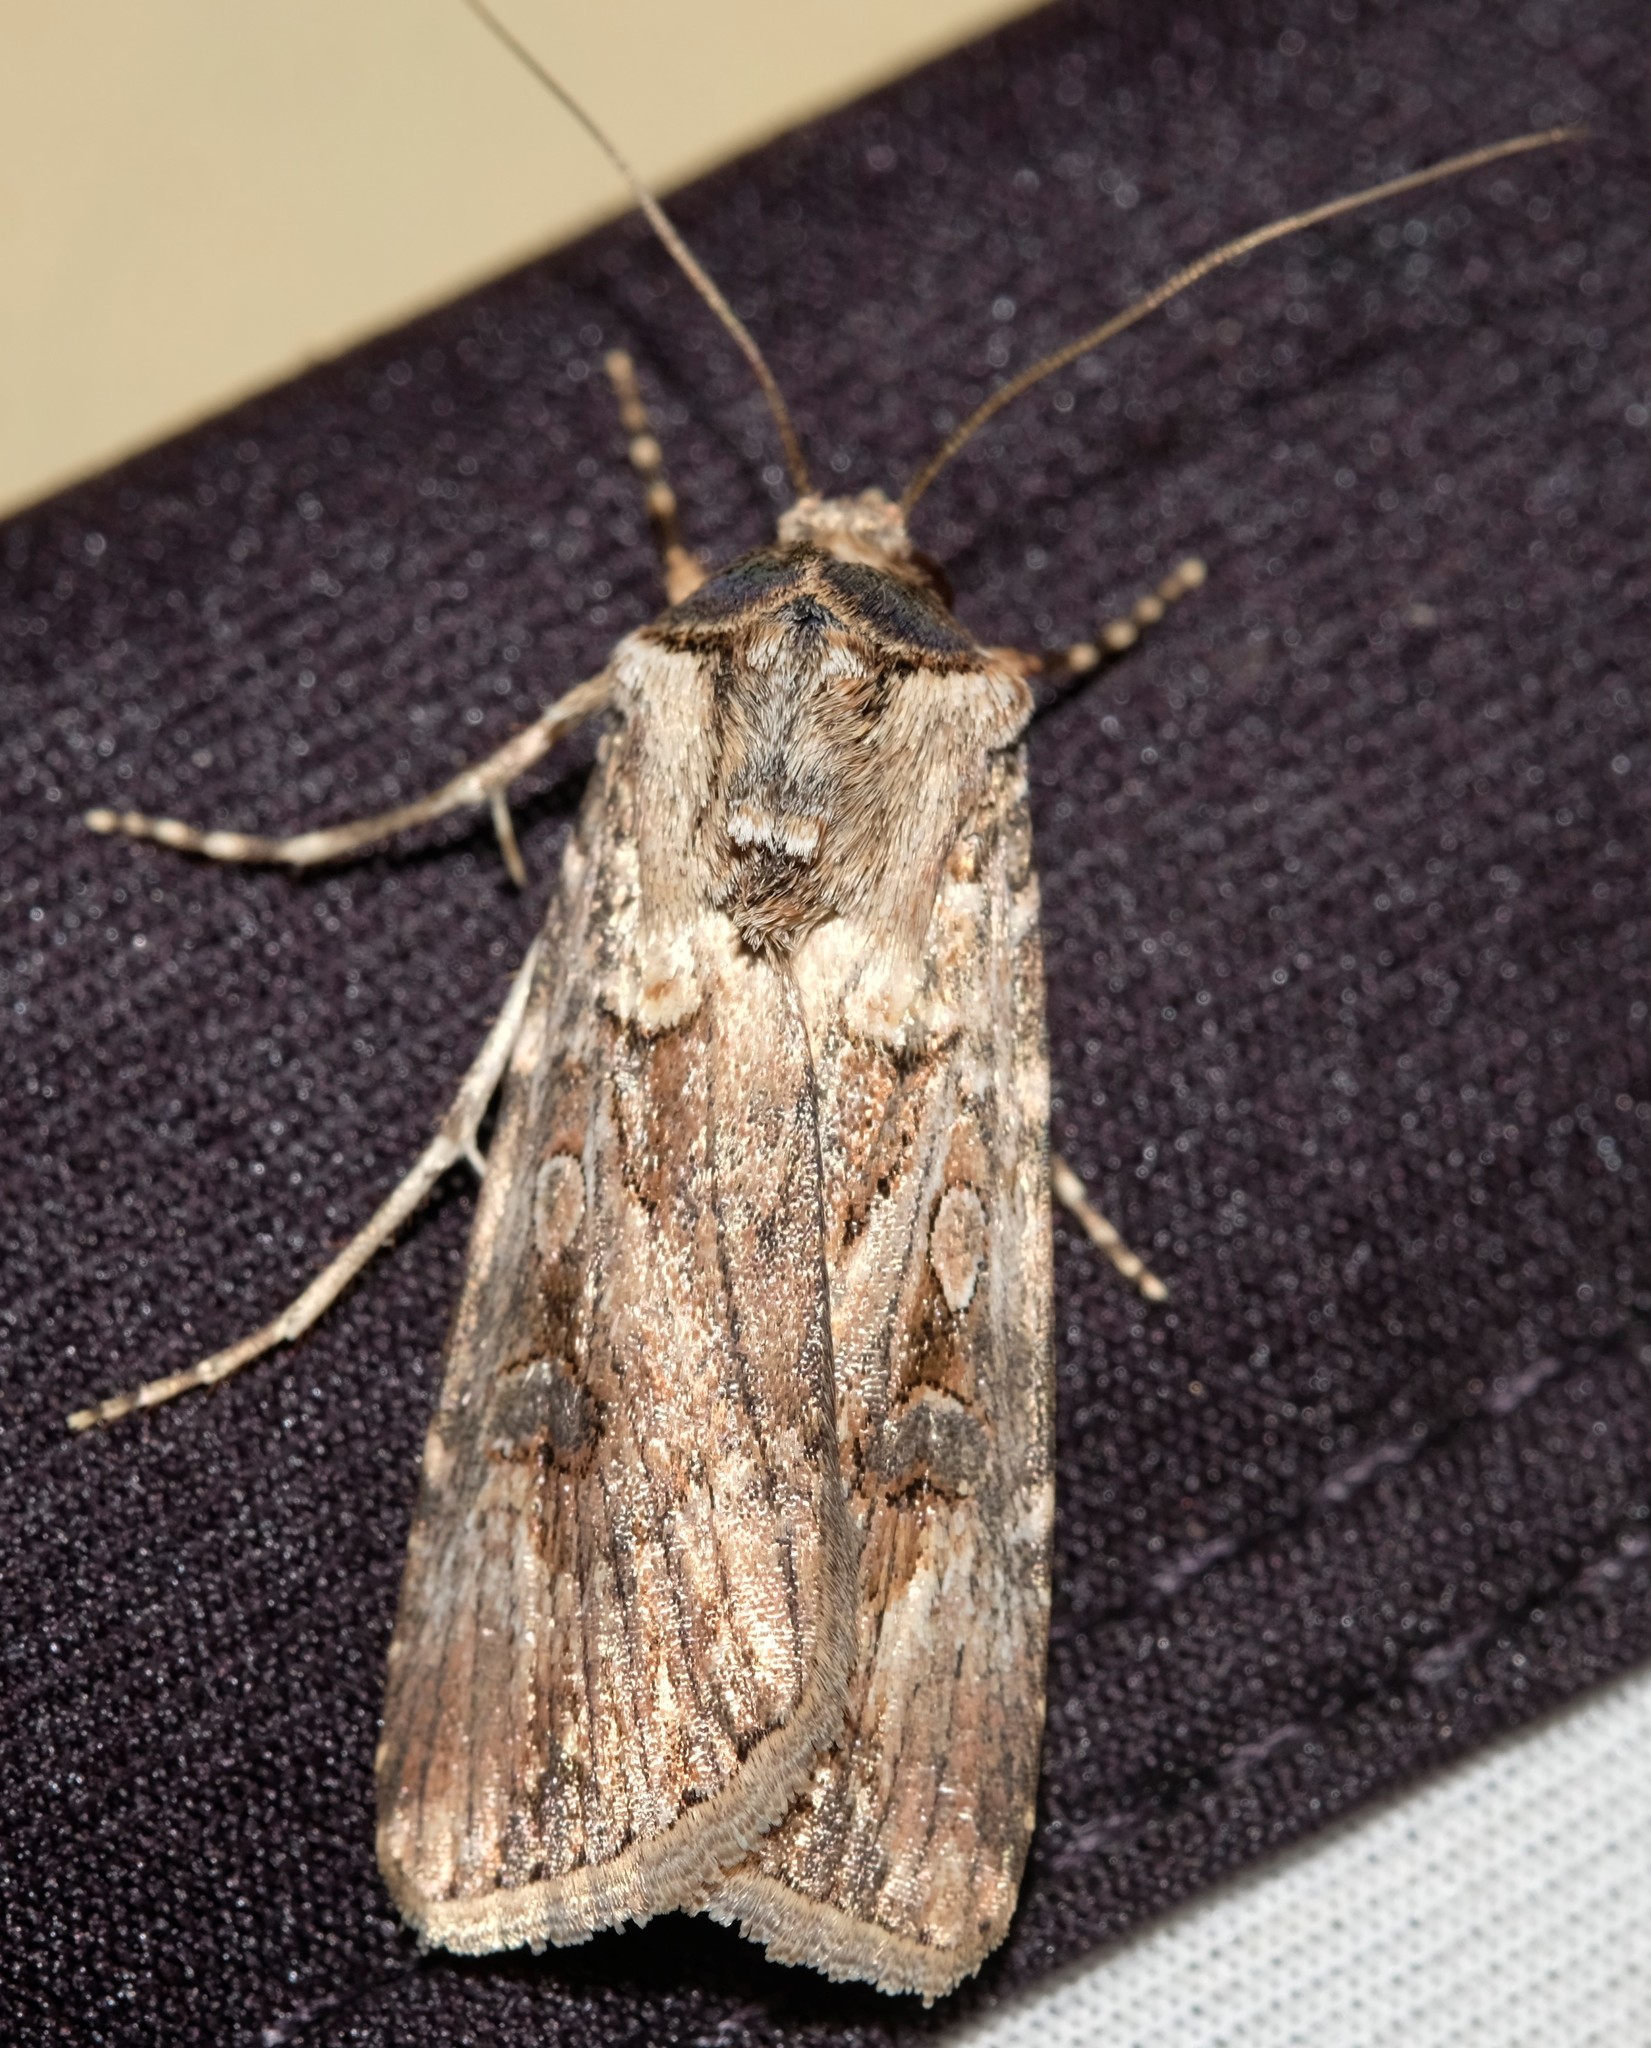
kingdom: Animalia
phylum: Arthropoda
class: Insecta
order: Lepidoptera
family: Noctuidae
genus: Agrotis
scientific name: Agrotis munda
